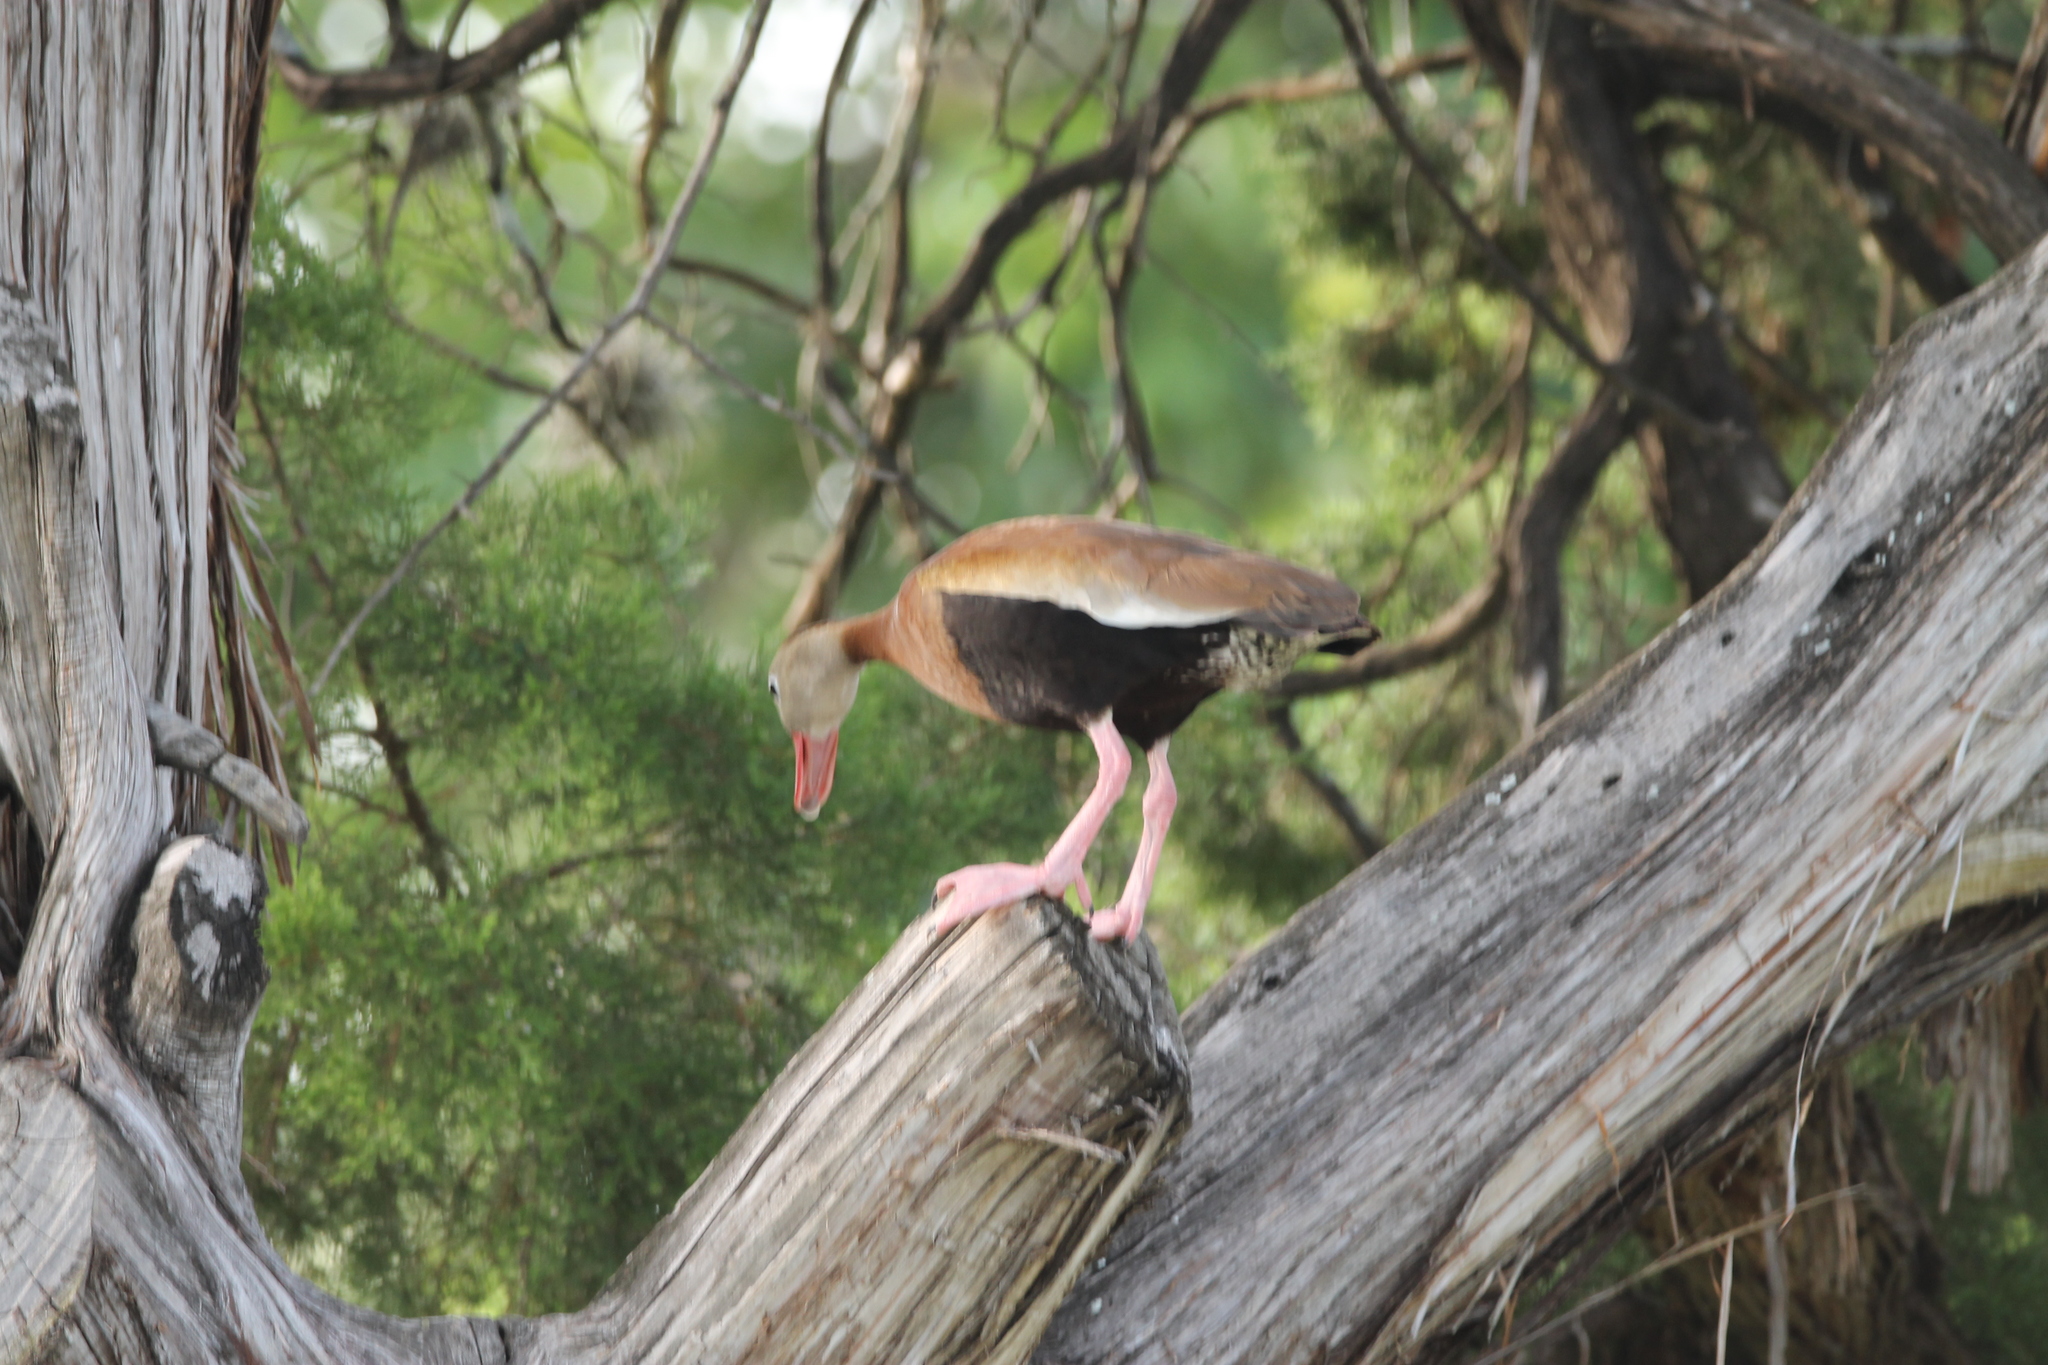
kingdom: Animalia
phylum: Chordata
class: Aves
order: Anseriformes
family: Anatidae
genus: Dendrocygna
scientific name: Dendrocygna autumnalis
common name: Black-bellied whistling duck
